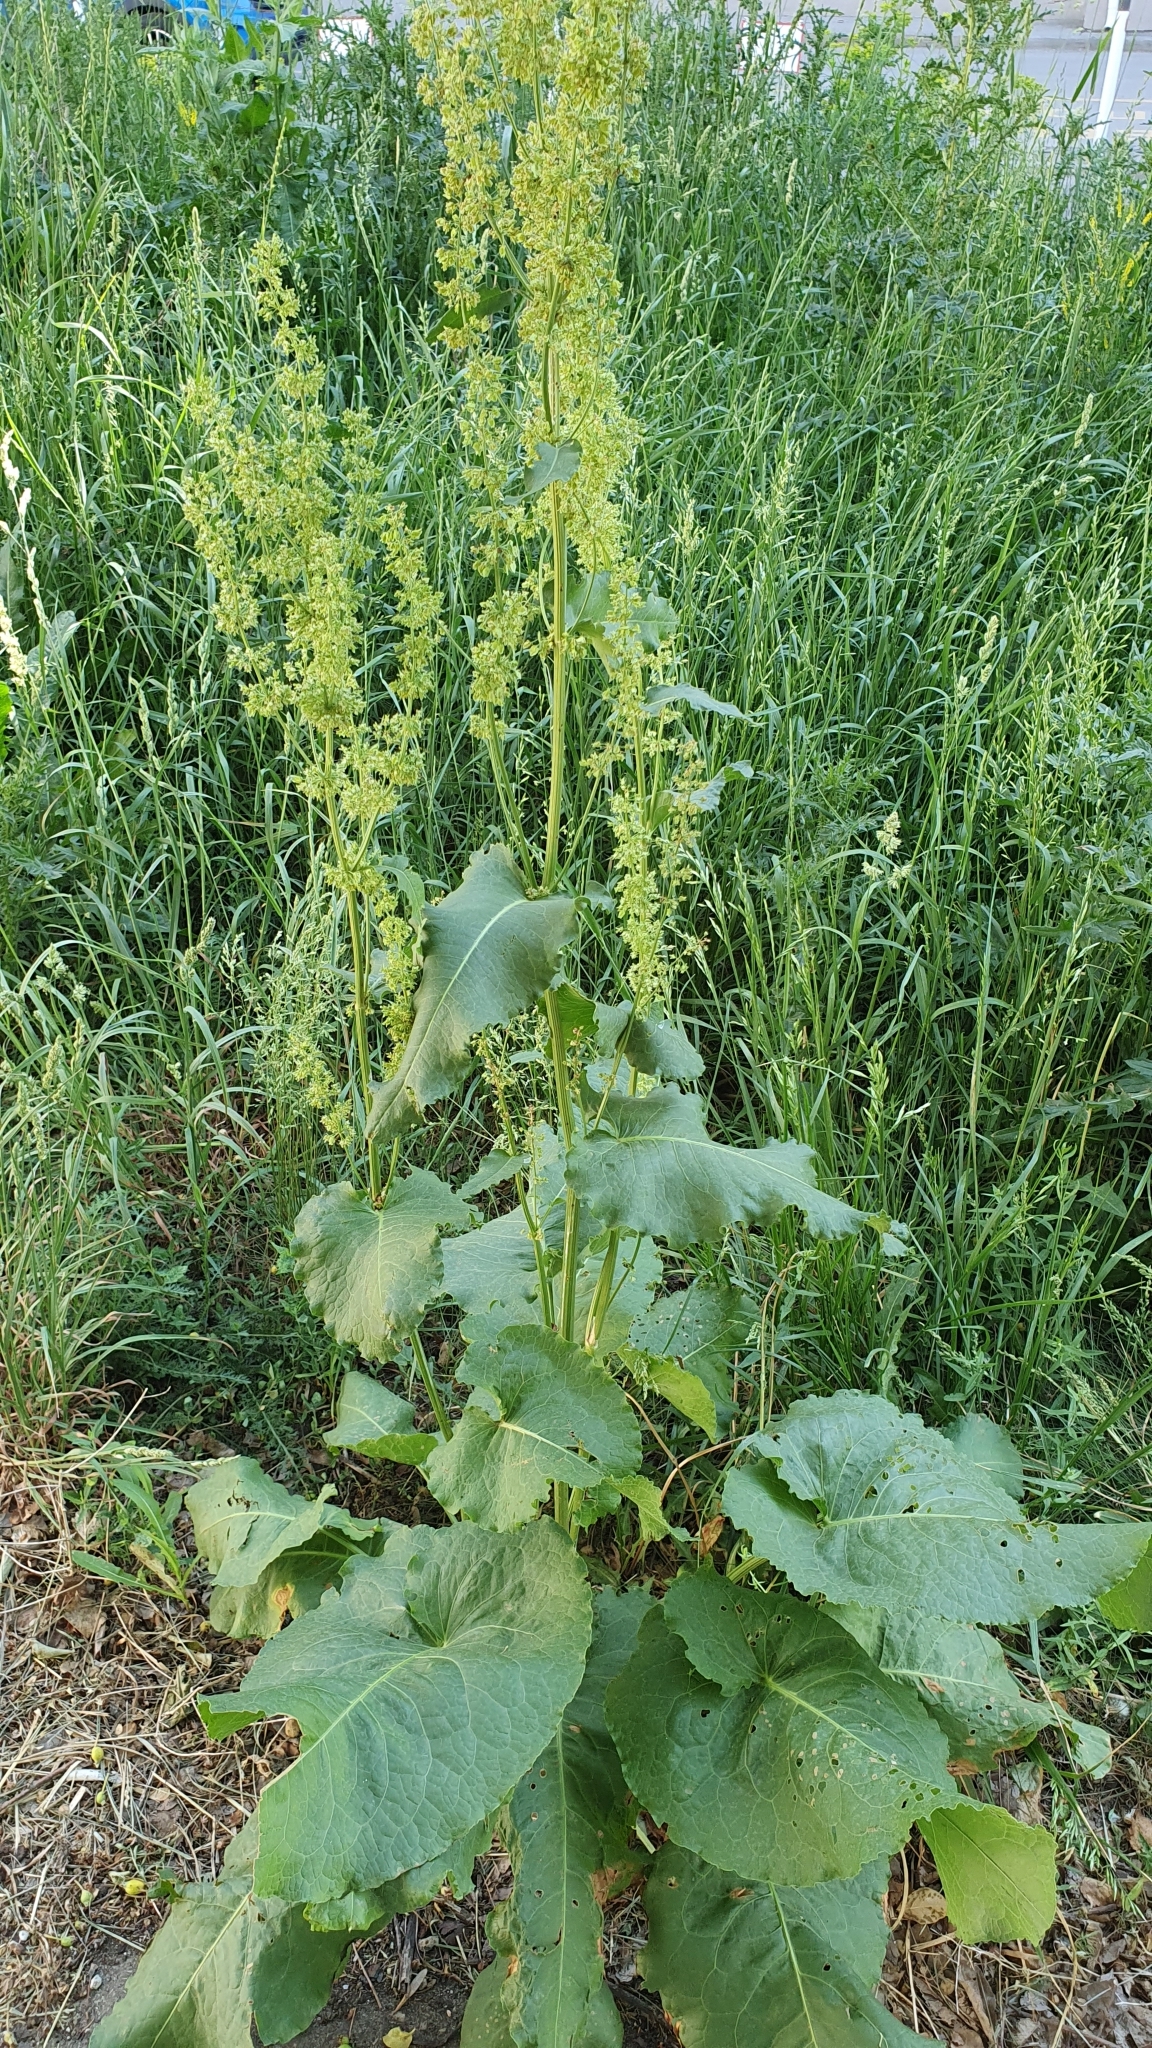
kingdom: Plantae
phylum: Tracheophyta
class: Magnoliopsida
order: Caryophyllales
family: Polygonaceae
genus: Rumex
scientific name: Rumex confertus
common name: Russian dock
